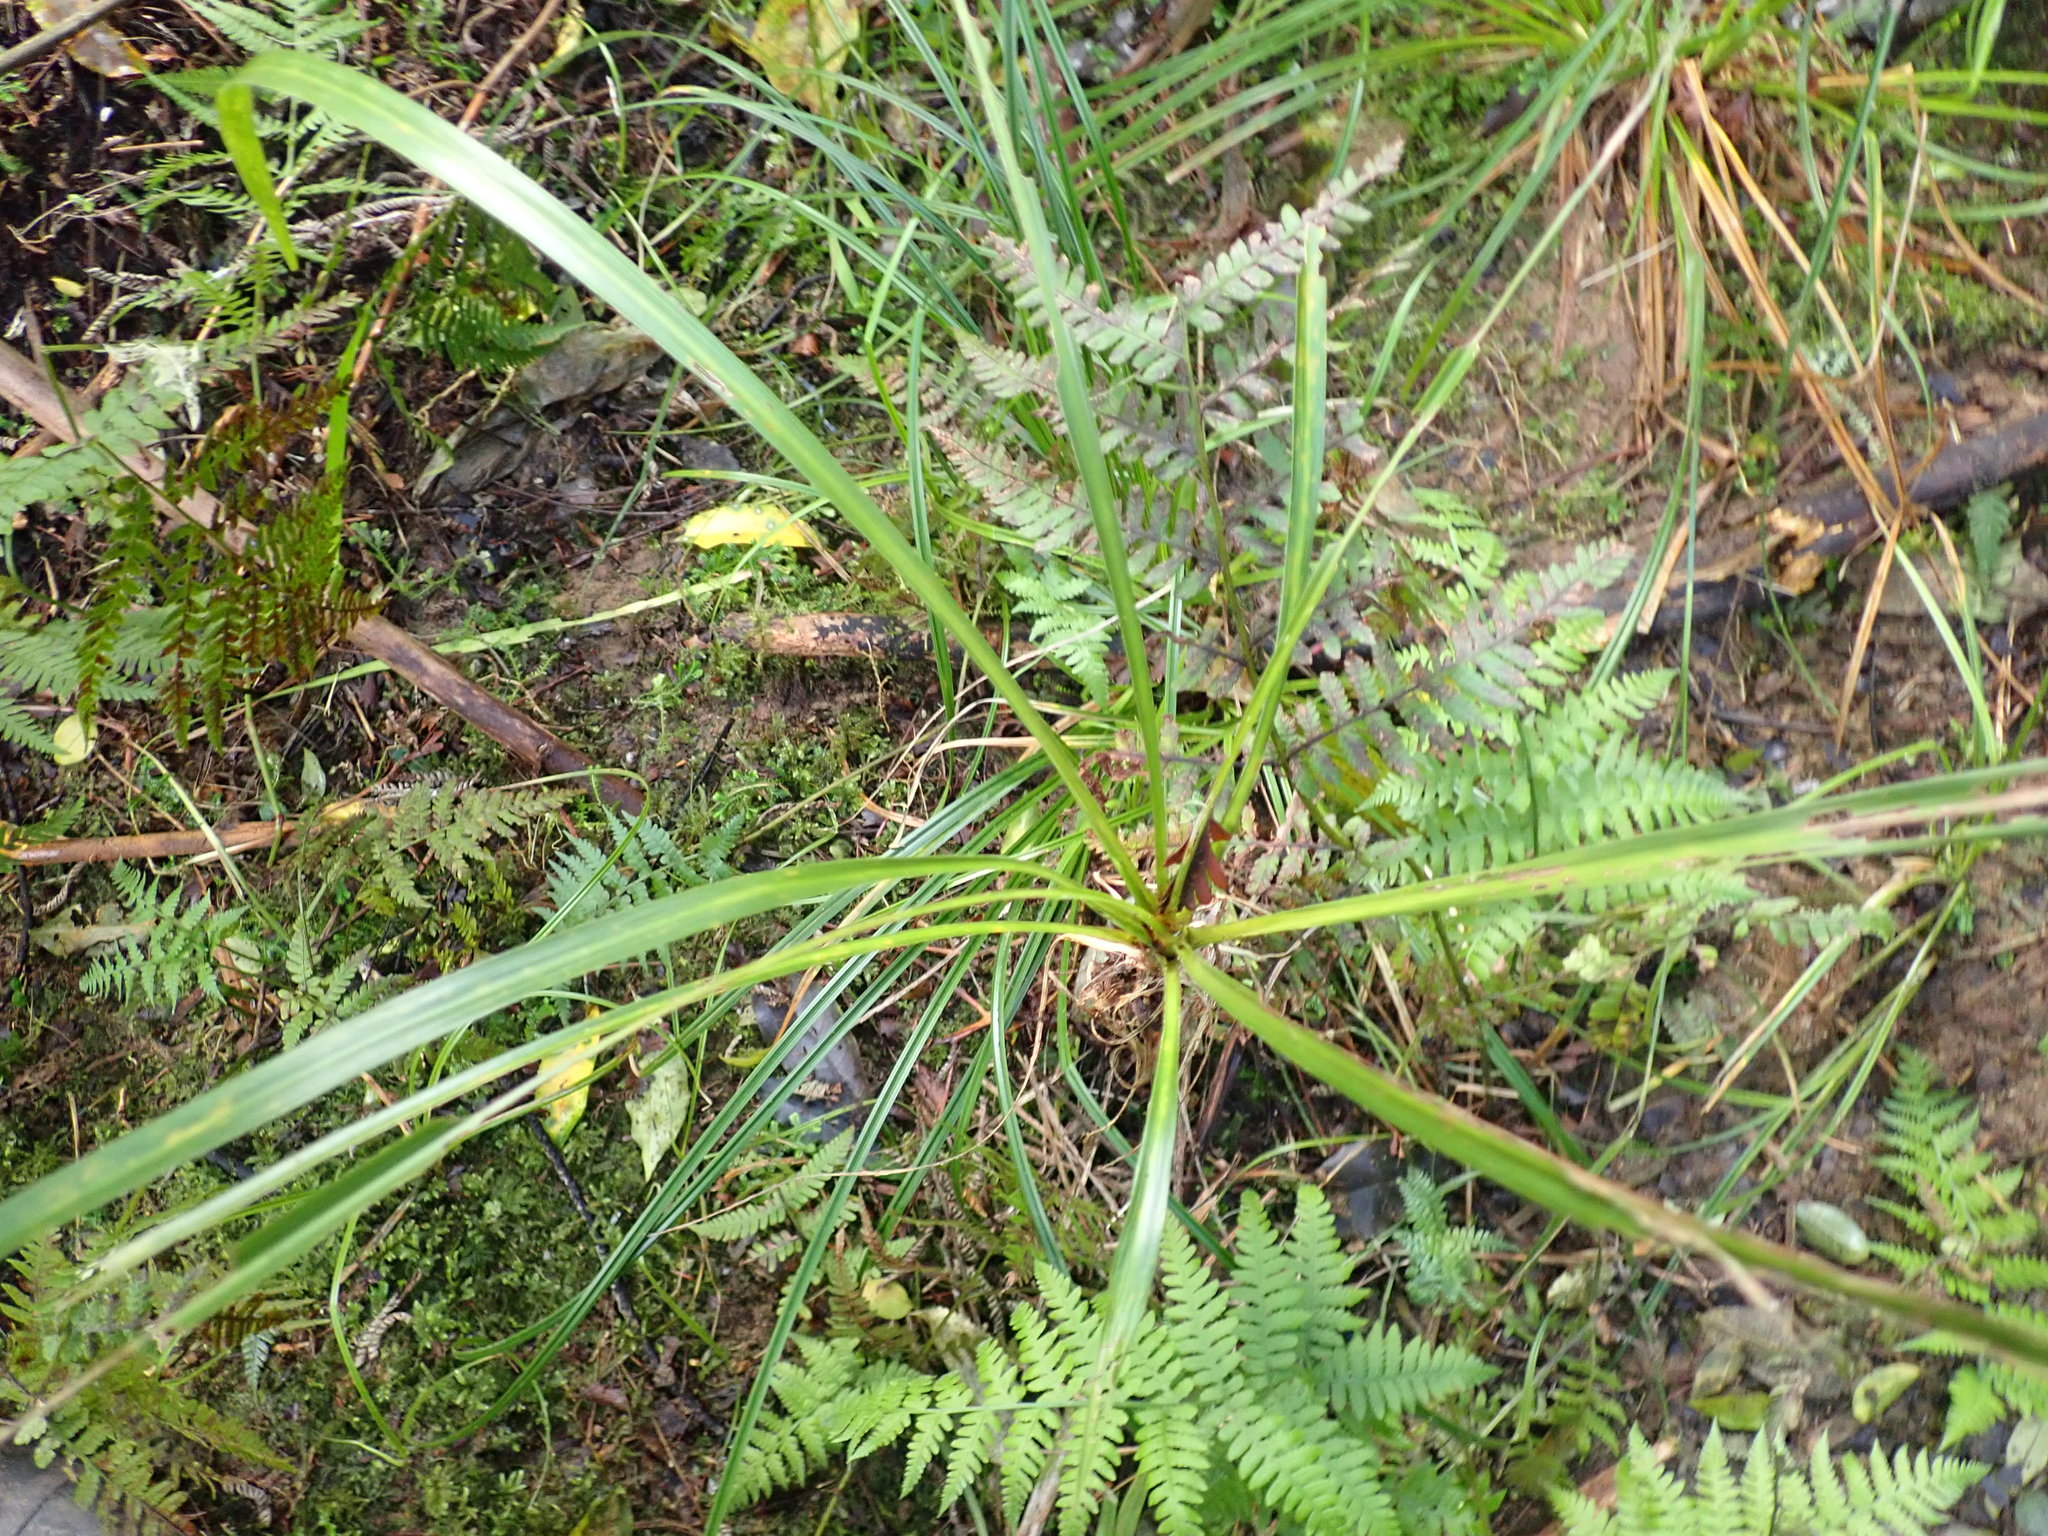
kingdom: Plantae
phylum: Tracheophyta
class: Liliopsida
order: Asparagales
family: Asparagaceae
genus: Cordyline
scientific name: Cordyline australis
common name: Cabbage-palm
